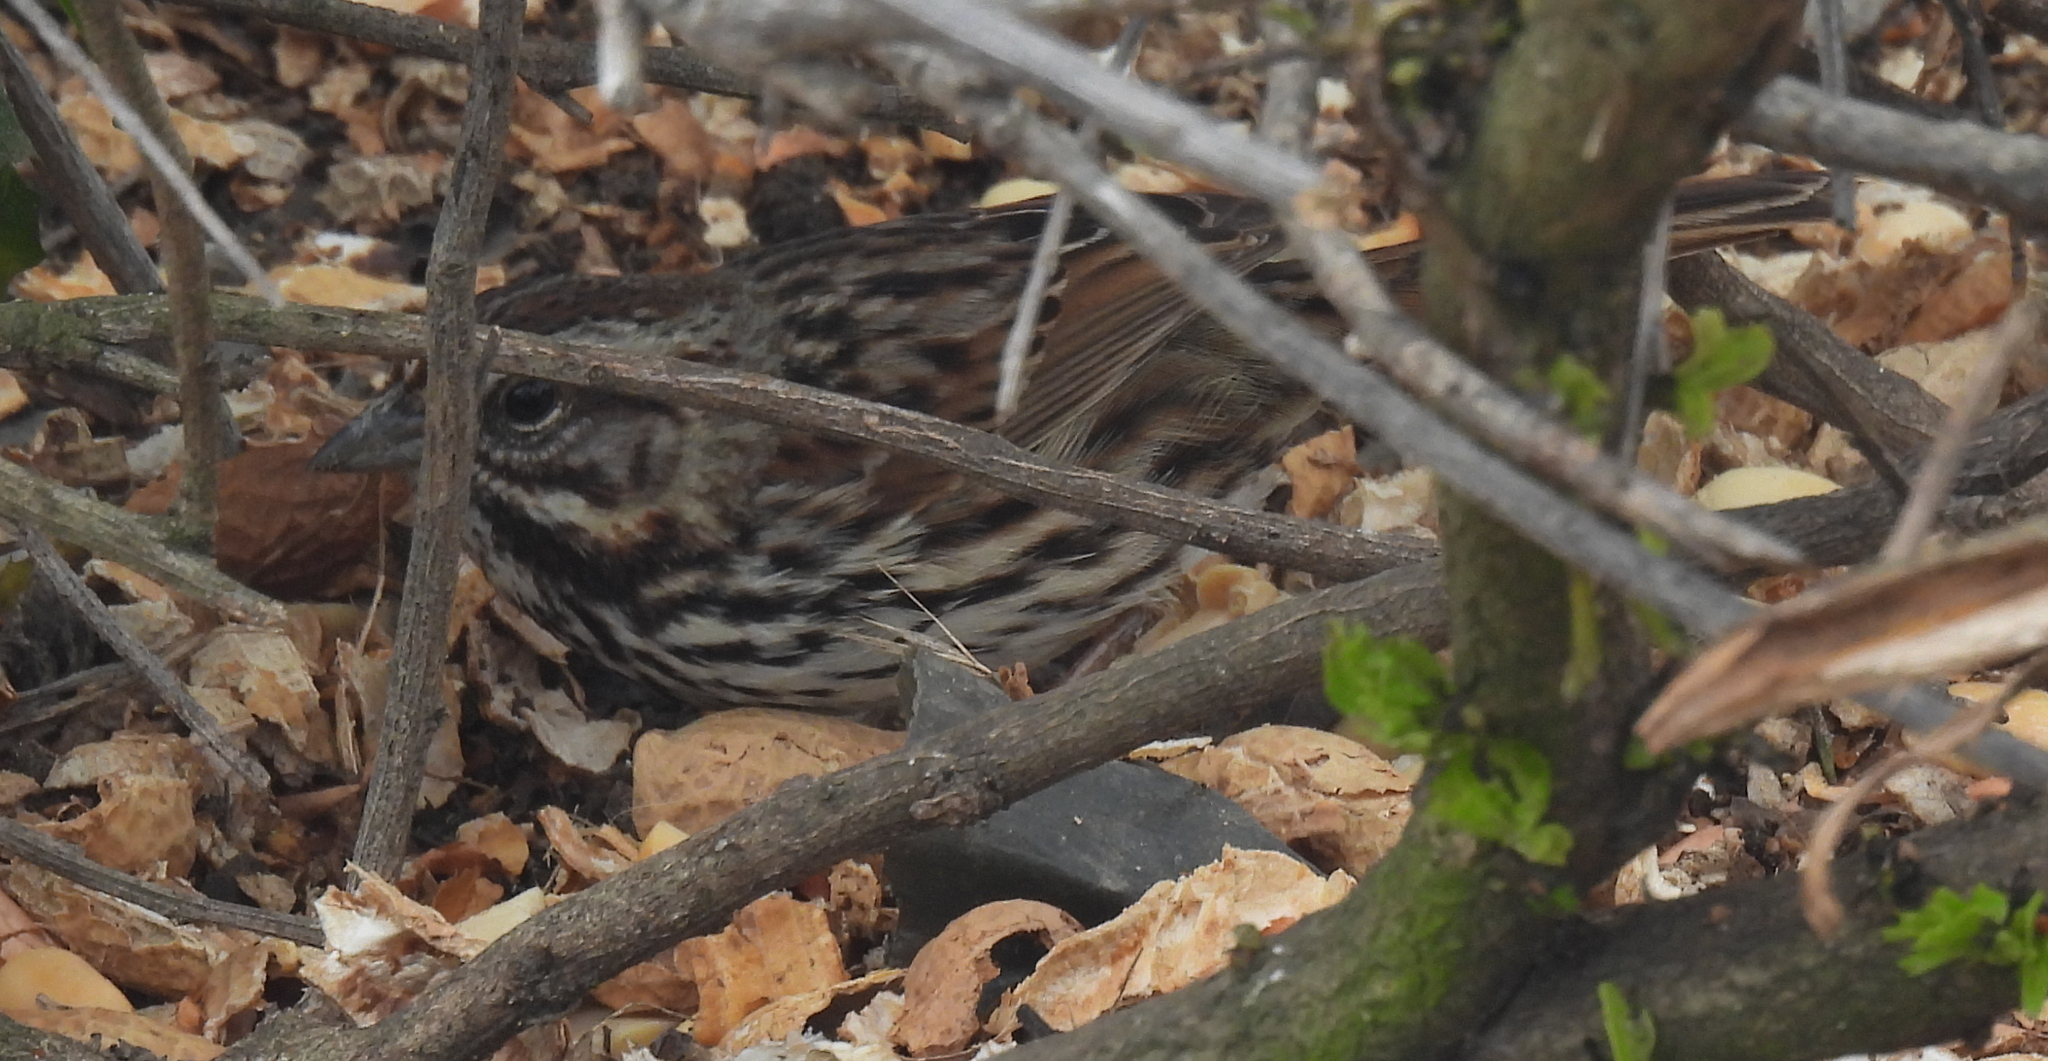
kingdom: Animalia
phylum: Chordata
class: Aves
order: Passeriformes
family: Passerellidae
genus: Melospiza
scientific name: Melospiza melodia
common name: Song sparrow
